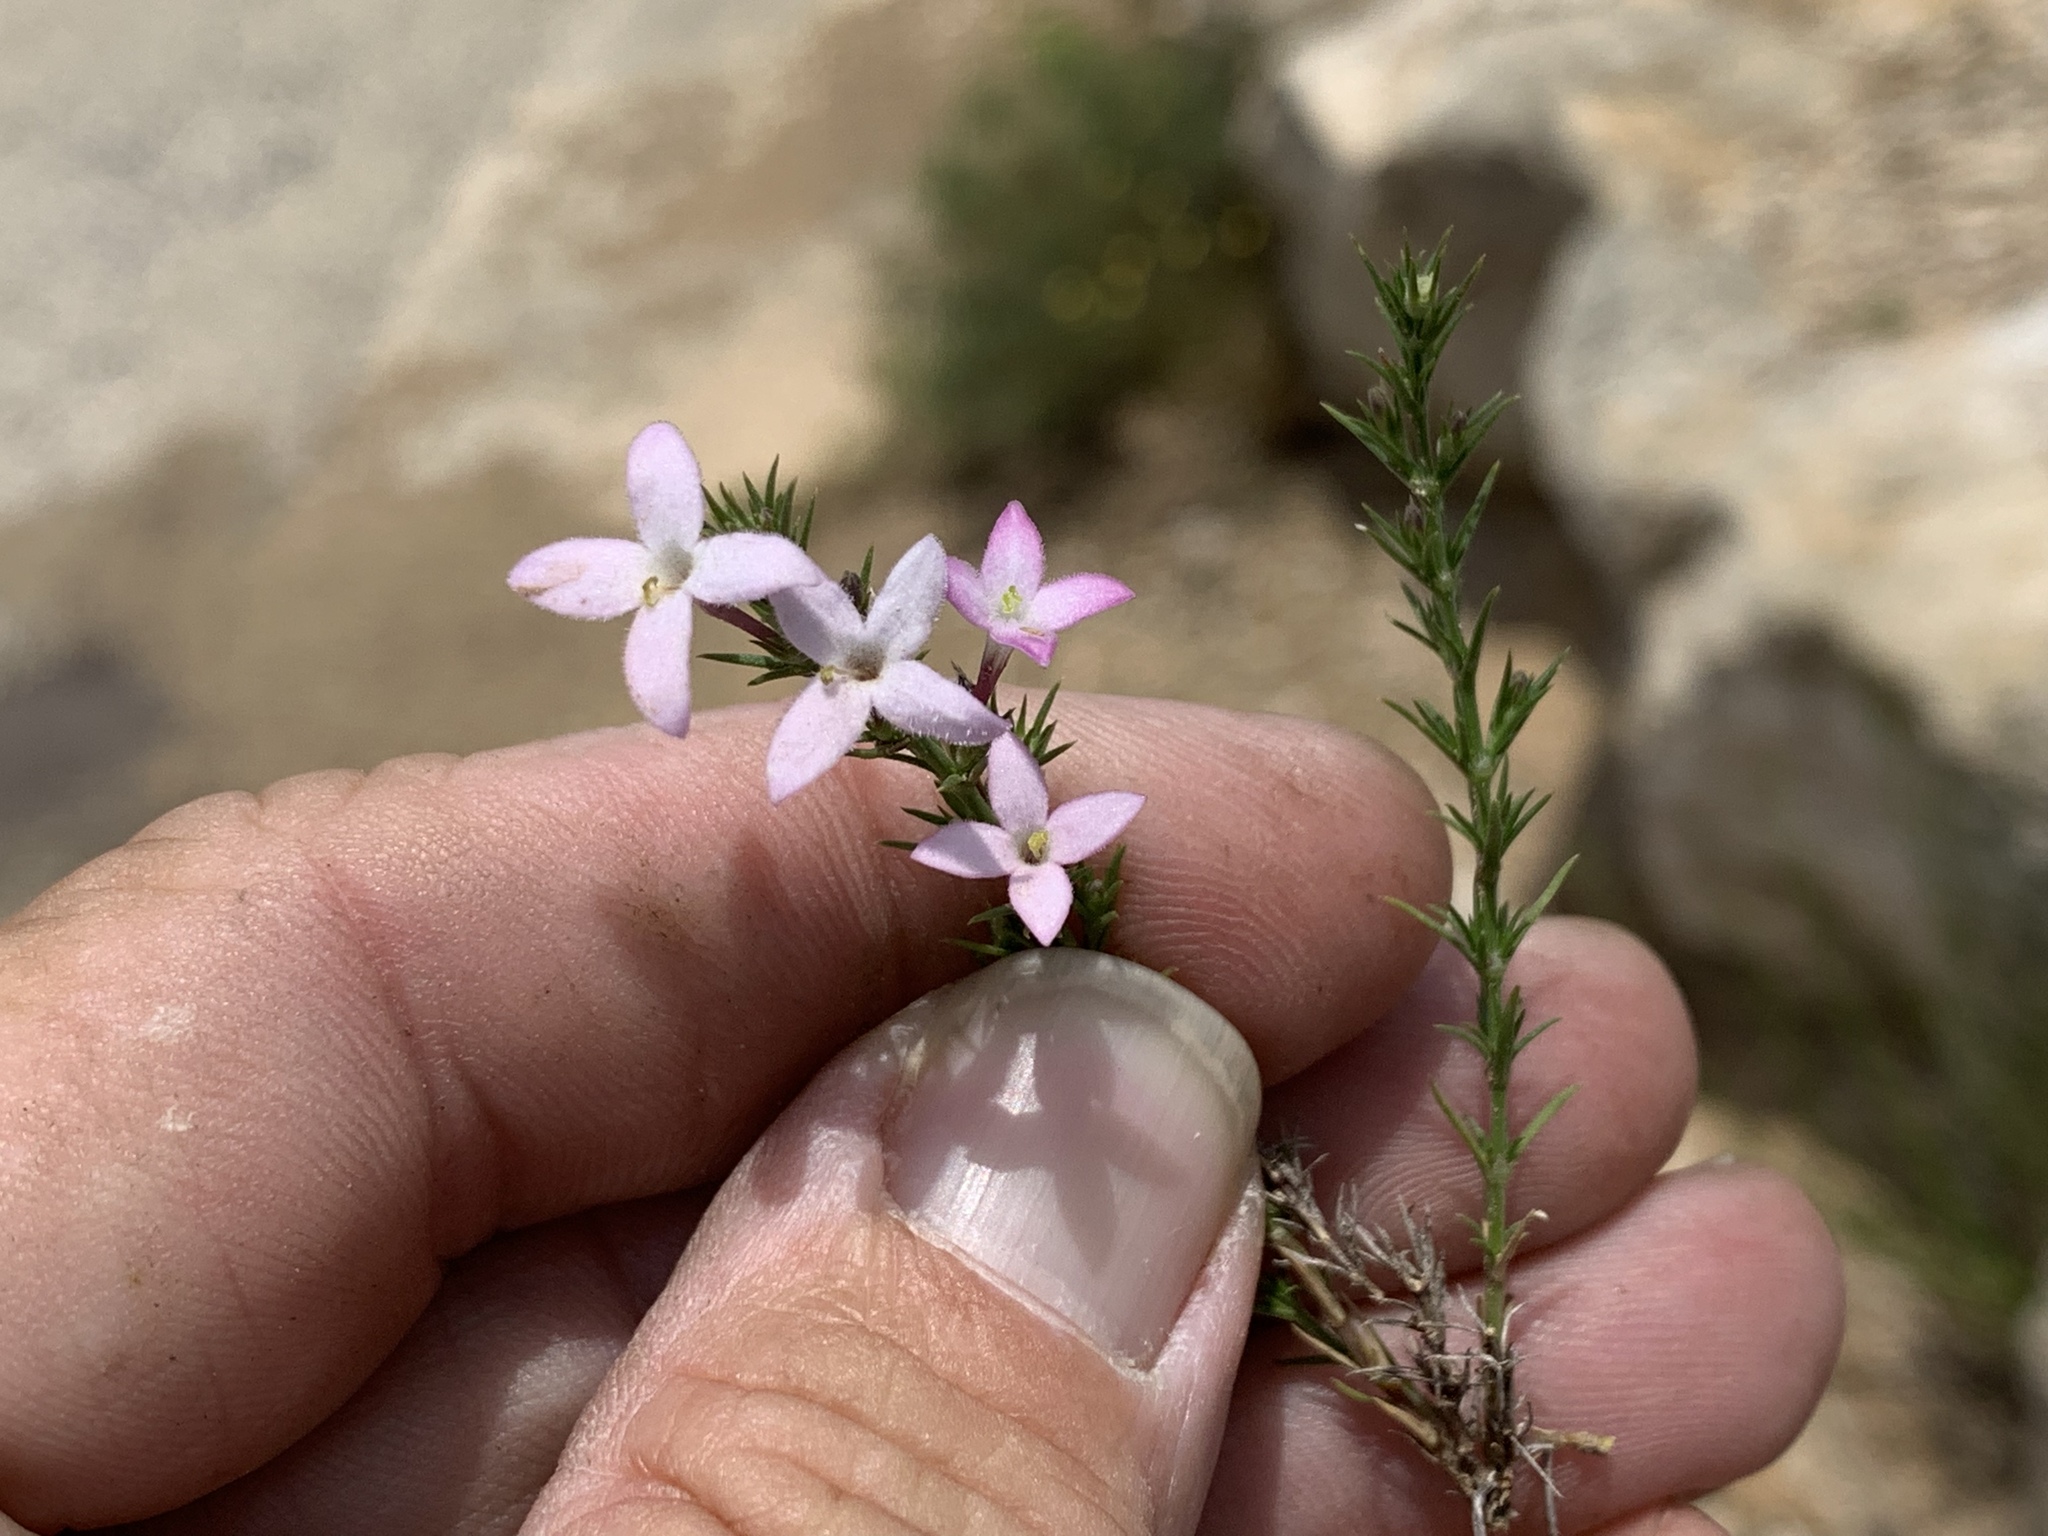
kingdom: Plantae
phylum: Tracheophyta
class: Magnoliopsida
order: Gentianales
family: Rubiaceae
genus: Houstonia
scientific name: Houstonia acerosa
